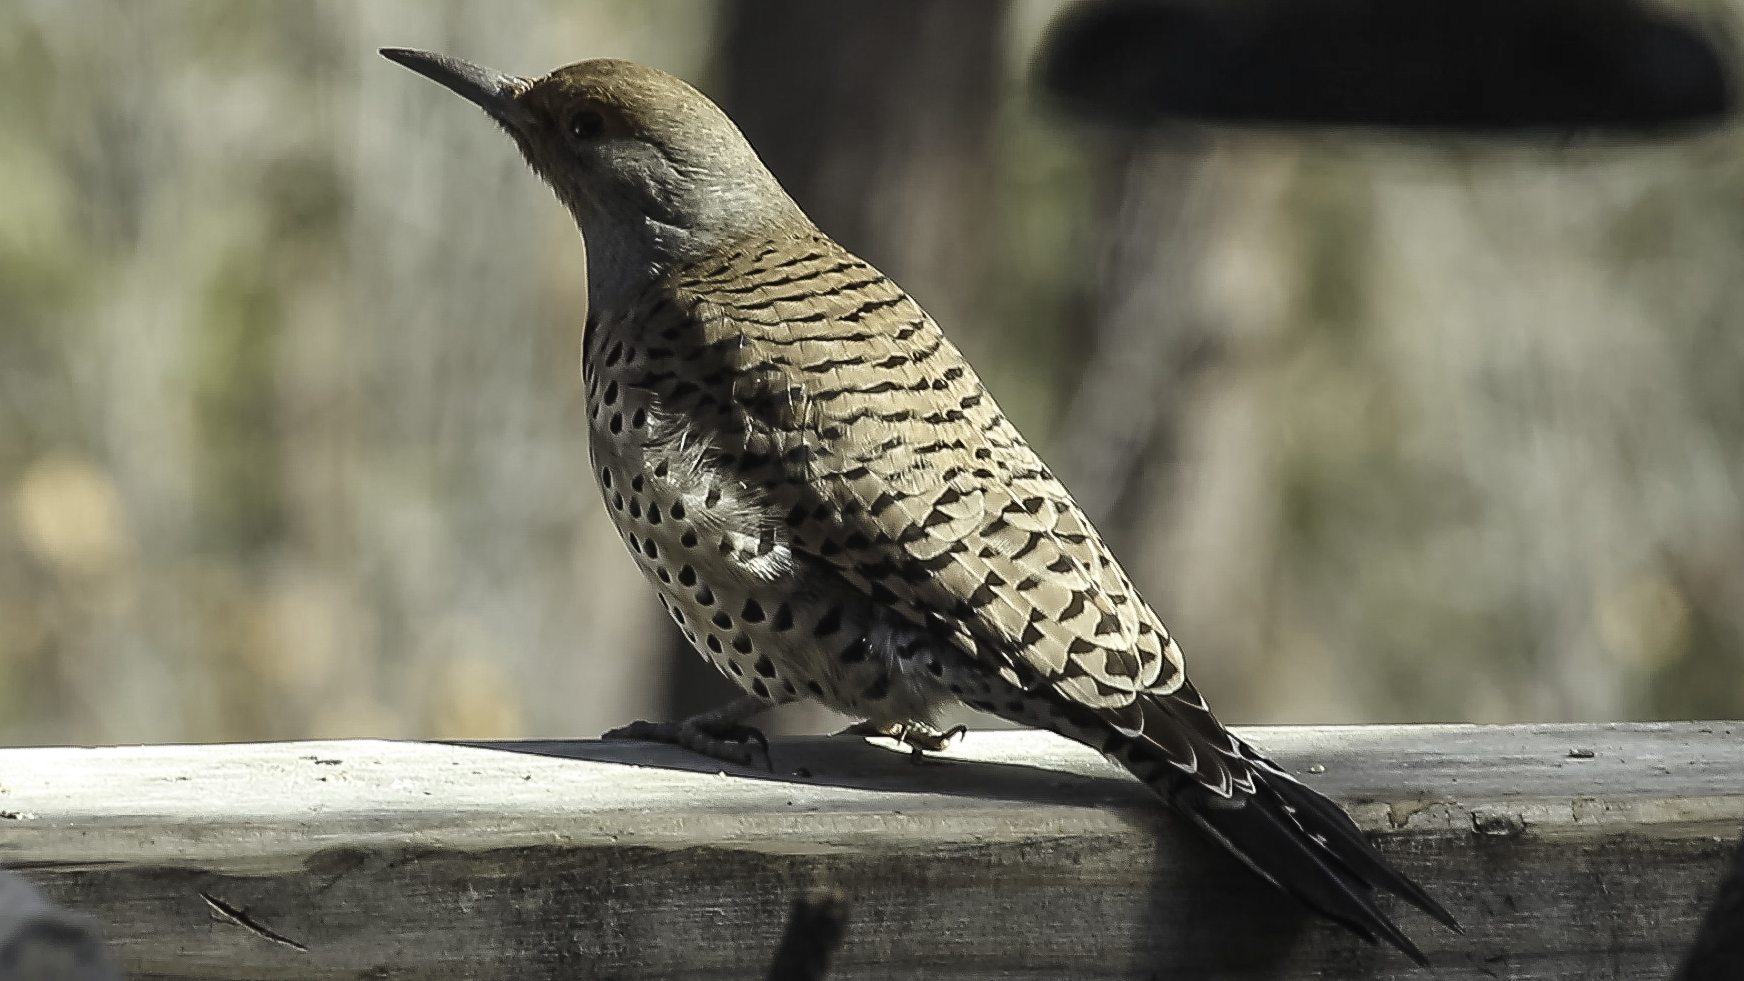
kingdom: Animalia
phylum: Chordata
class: Aves
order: Piciformes
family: Picidae
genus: Colaptes
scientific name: Colaptes auratus
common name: Northern flicker
